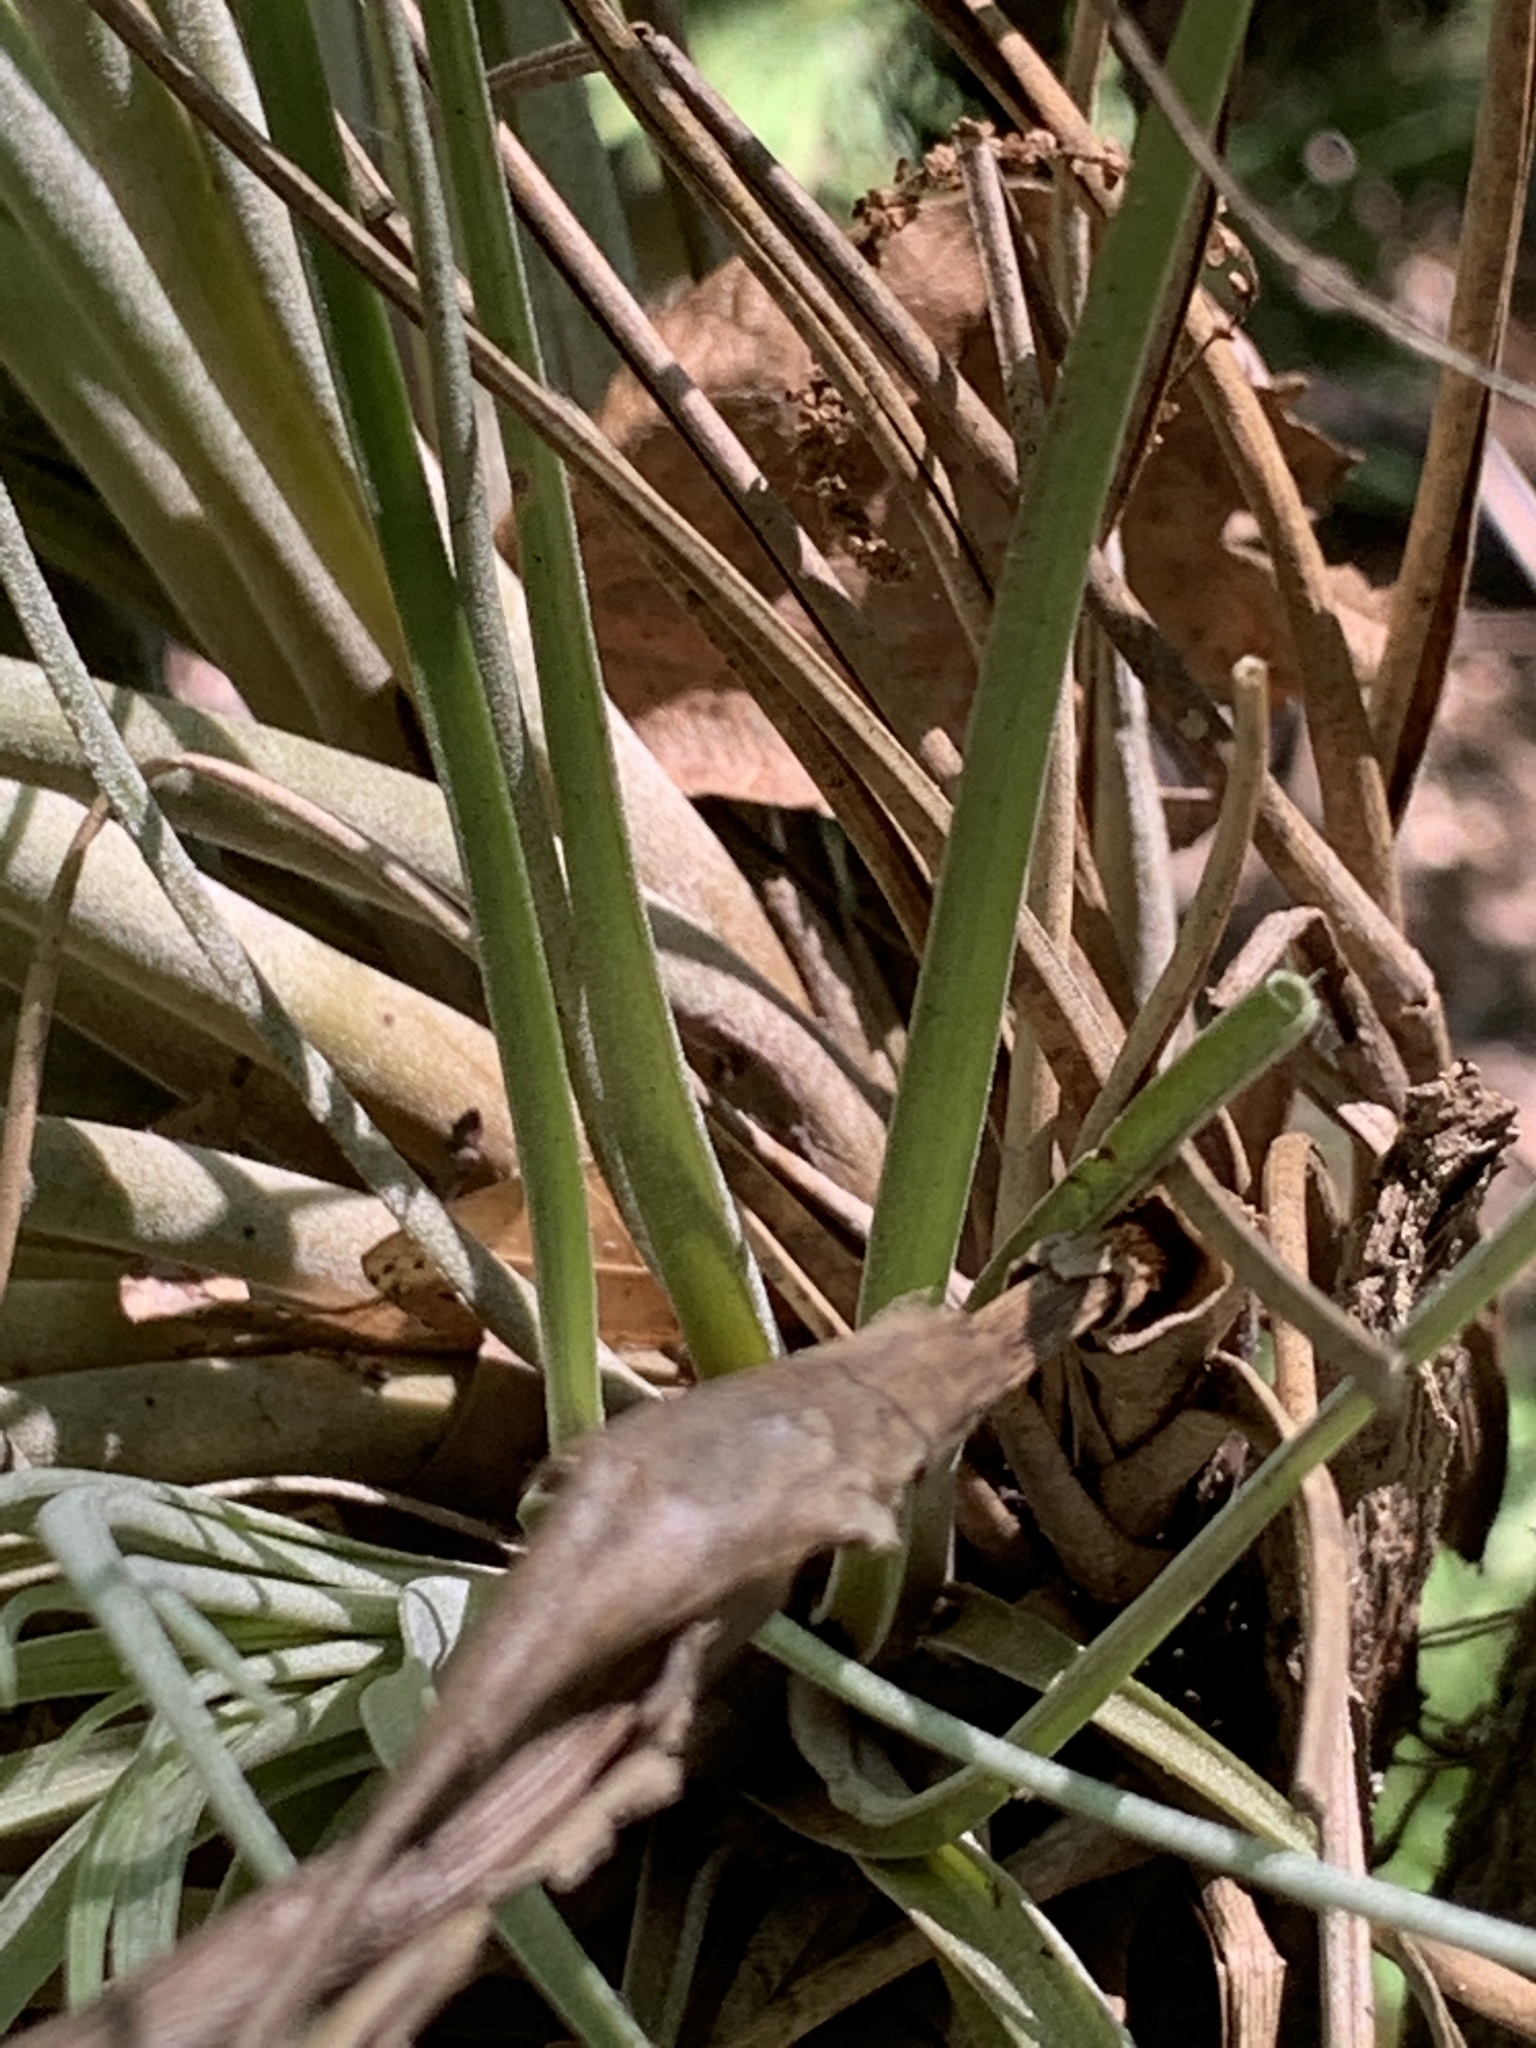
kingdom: Plantae
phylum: Tracheophyta
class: Liliopsida
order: Poales
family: Bromeliaceae
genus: Tillandsia
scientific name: Tillandsia fasciculata
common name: Giant airplant
